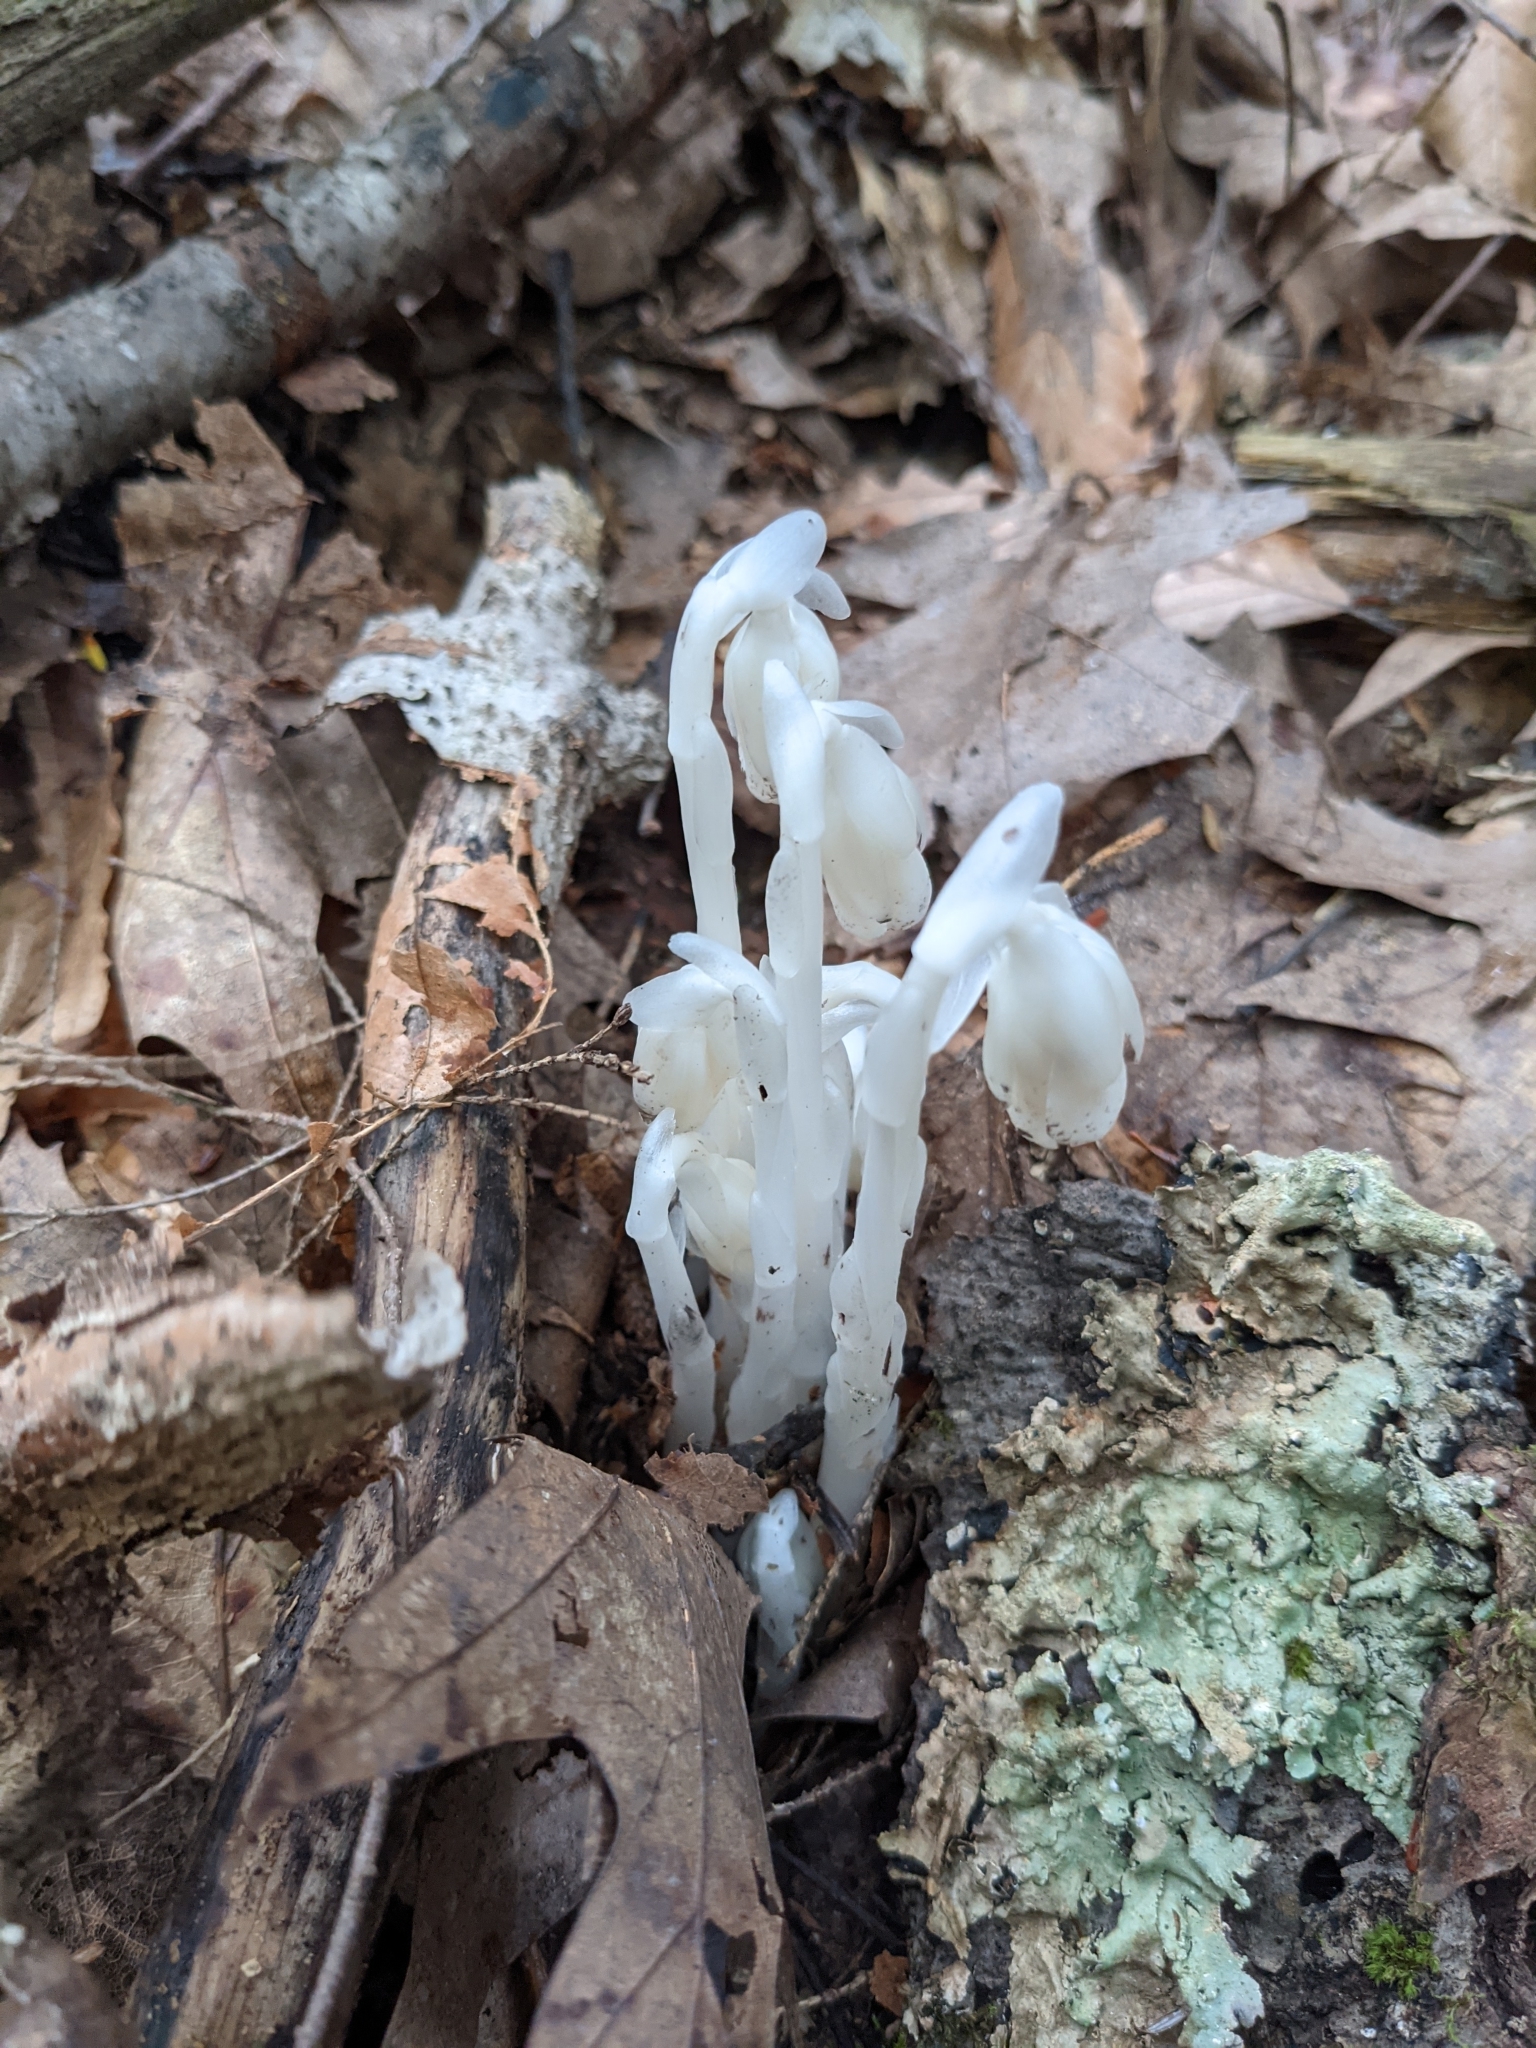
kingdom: Plantae
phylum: Tracheophyta
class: Magnoliopsida
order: Ericales
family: Ericaceae
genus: Monotropa
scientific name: Monotropa uniflora
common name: Convulsion root
